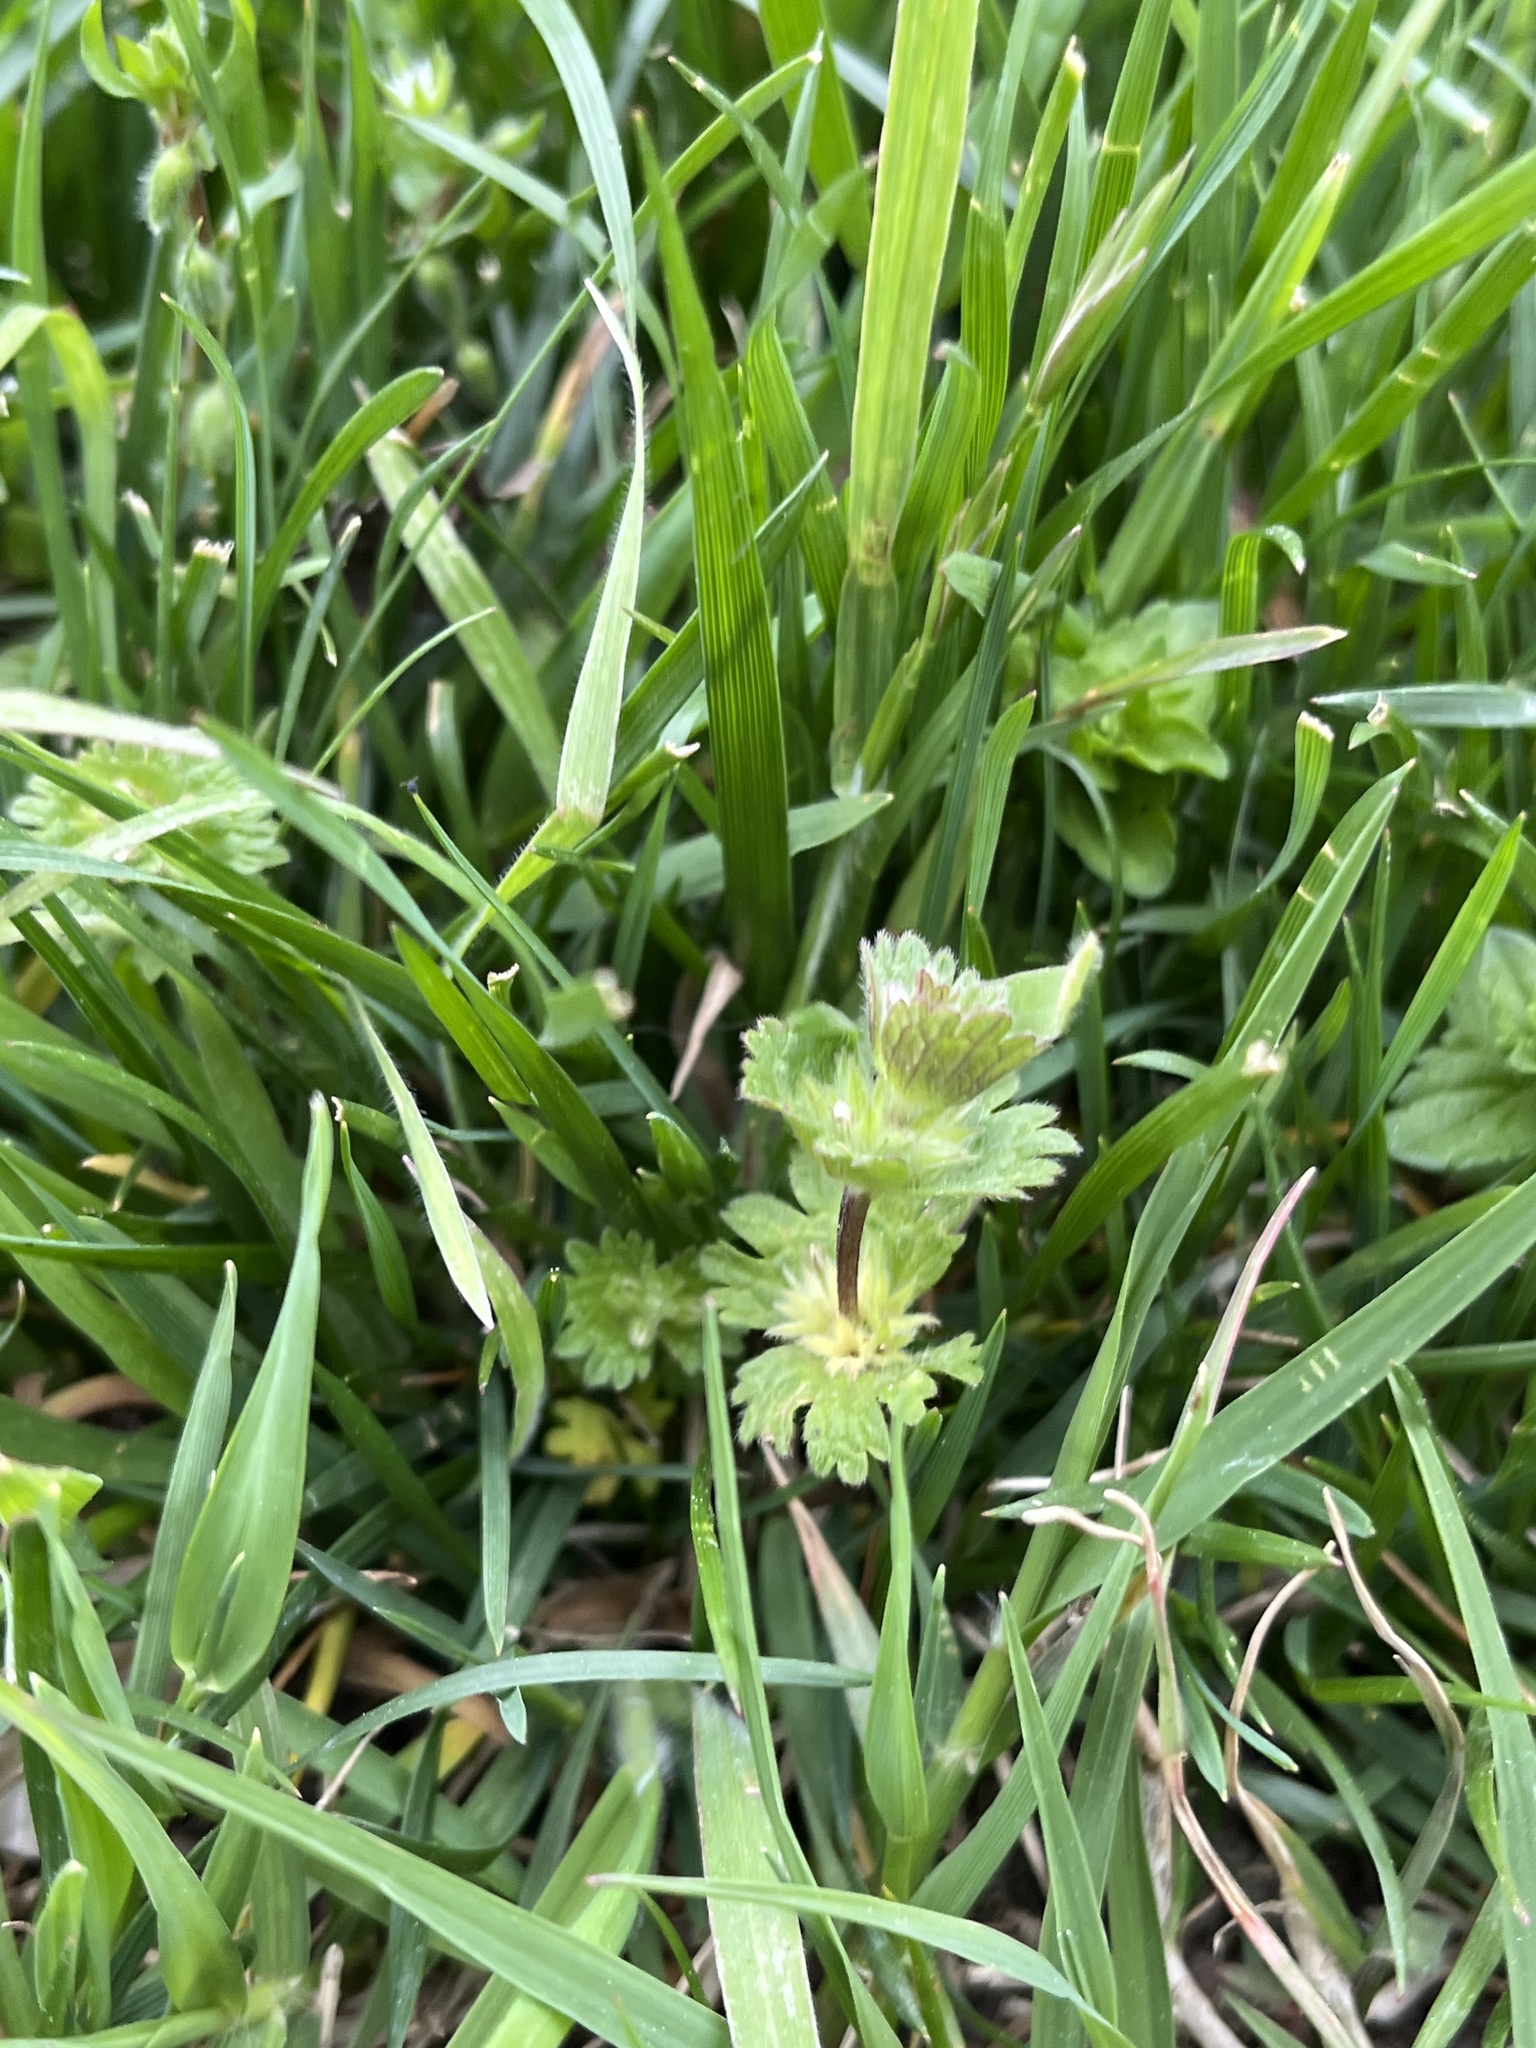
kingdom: Plantae
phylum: Tracheophyta
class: Magnoliopsida
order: Lamiales
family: Lamiaceae
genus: Lamium
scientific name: Lamium amplexicaule
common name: Henbit dead-nettle
